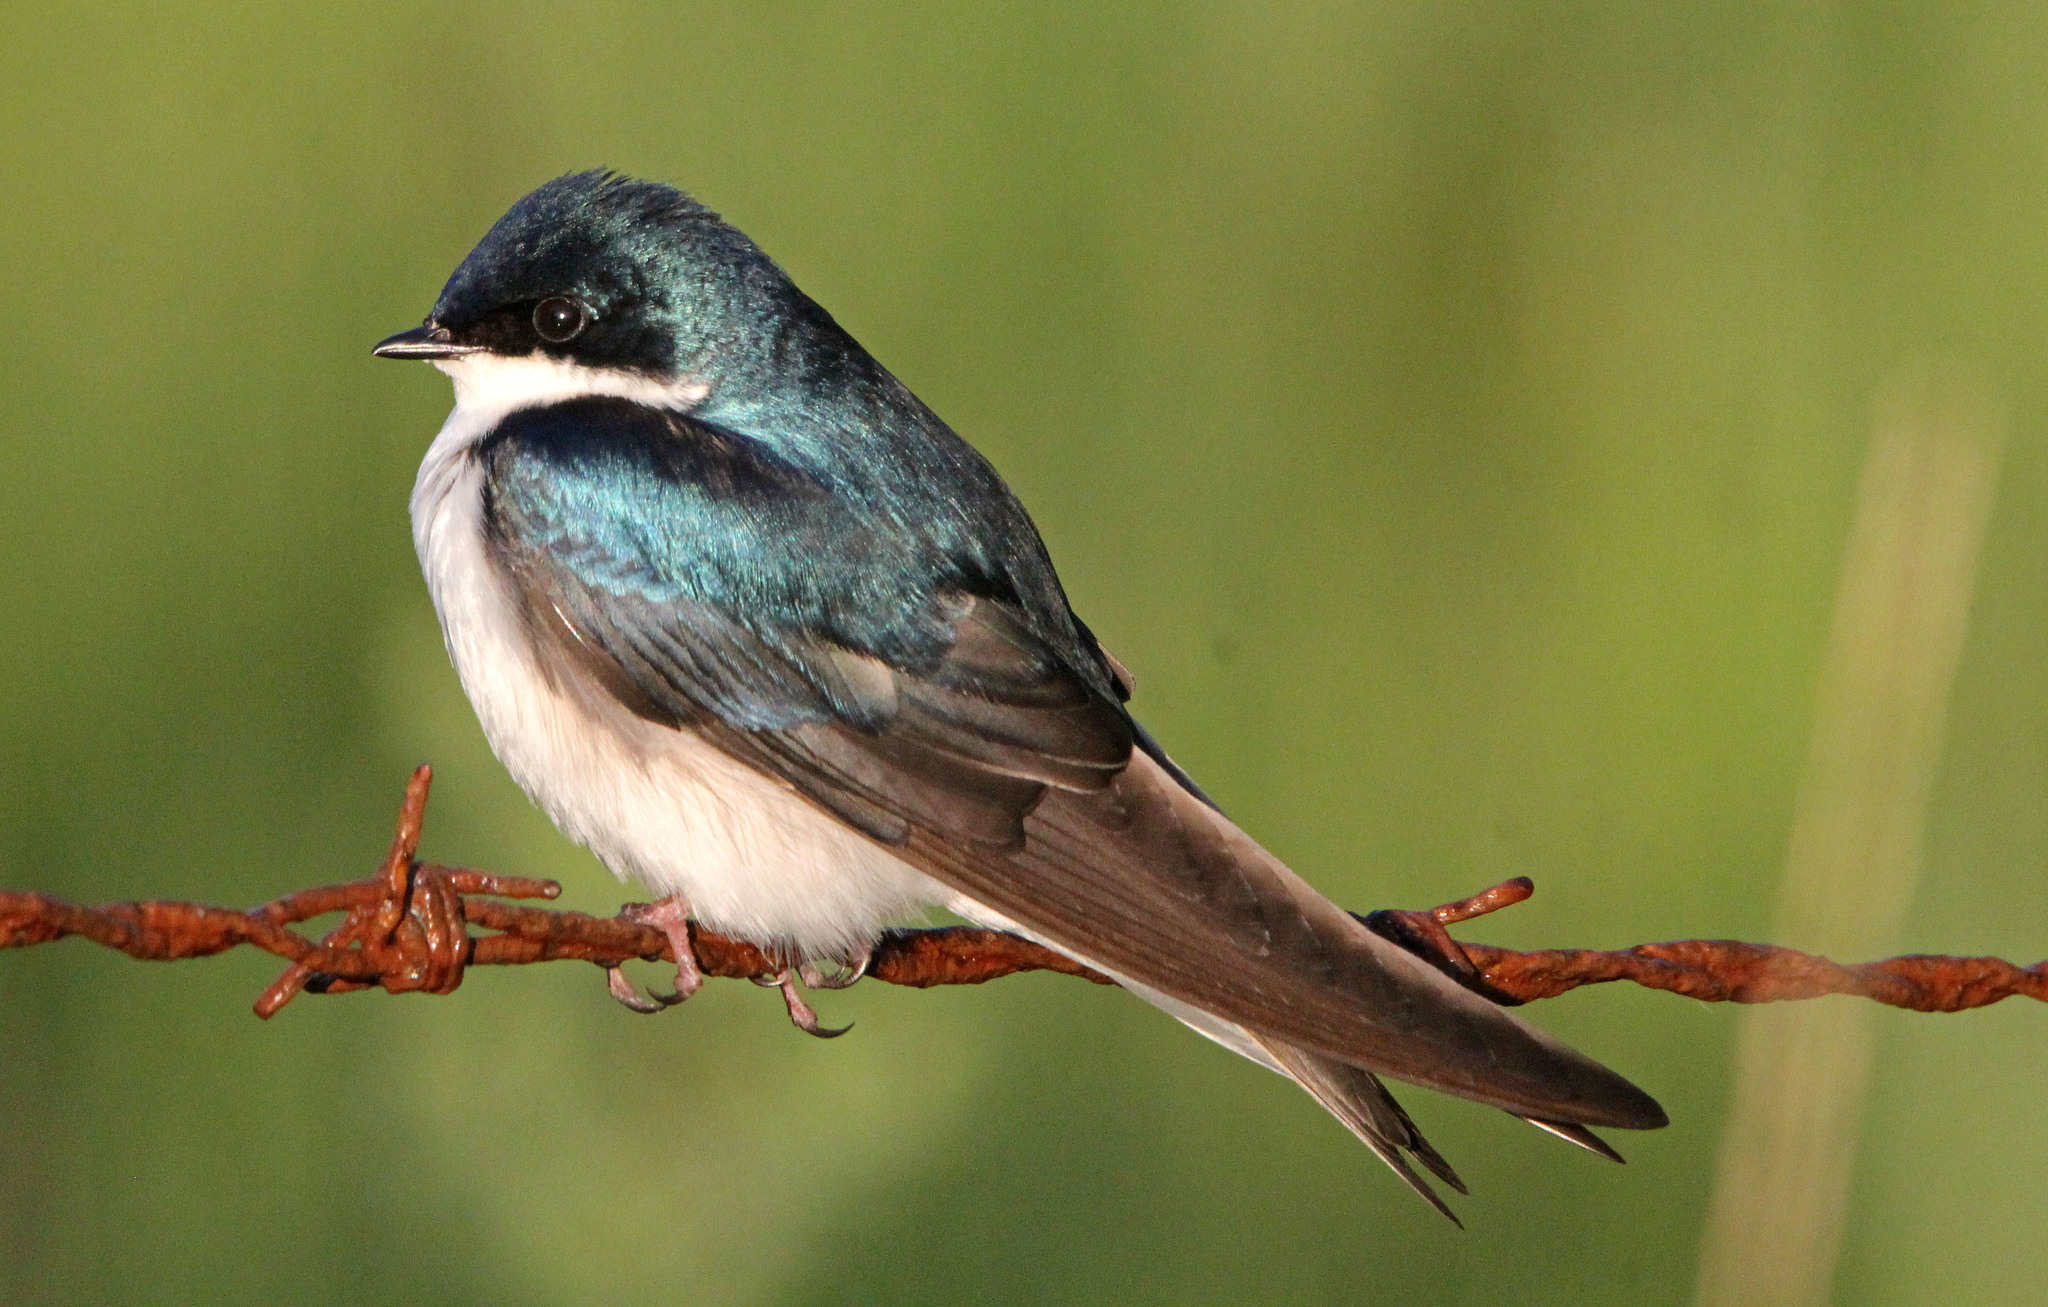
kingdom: Animalia
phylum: Chordata
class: Aves
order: Passeriformes
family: Hirundinidae
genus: Tachycineta
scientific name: Tachycineta bicolor
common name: Tree swallow
